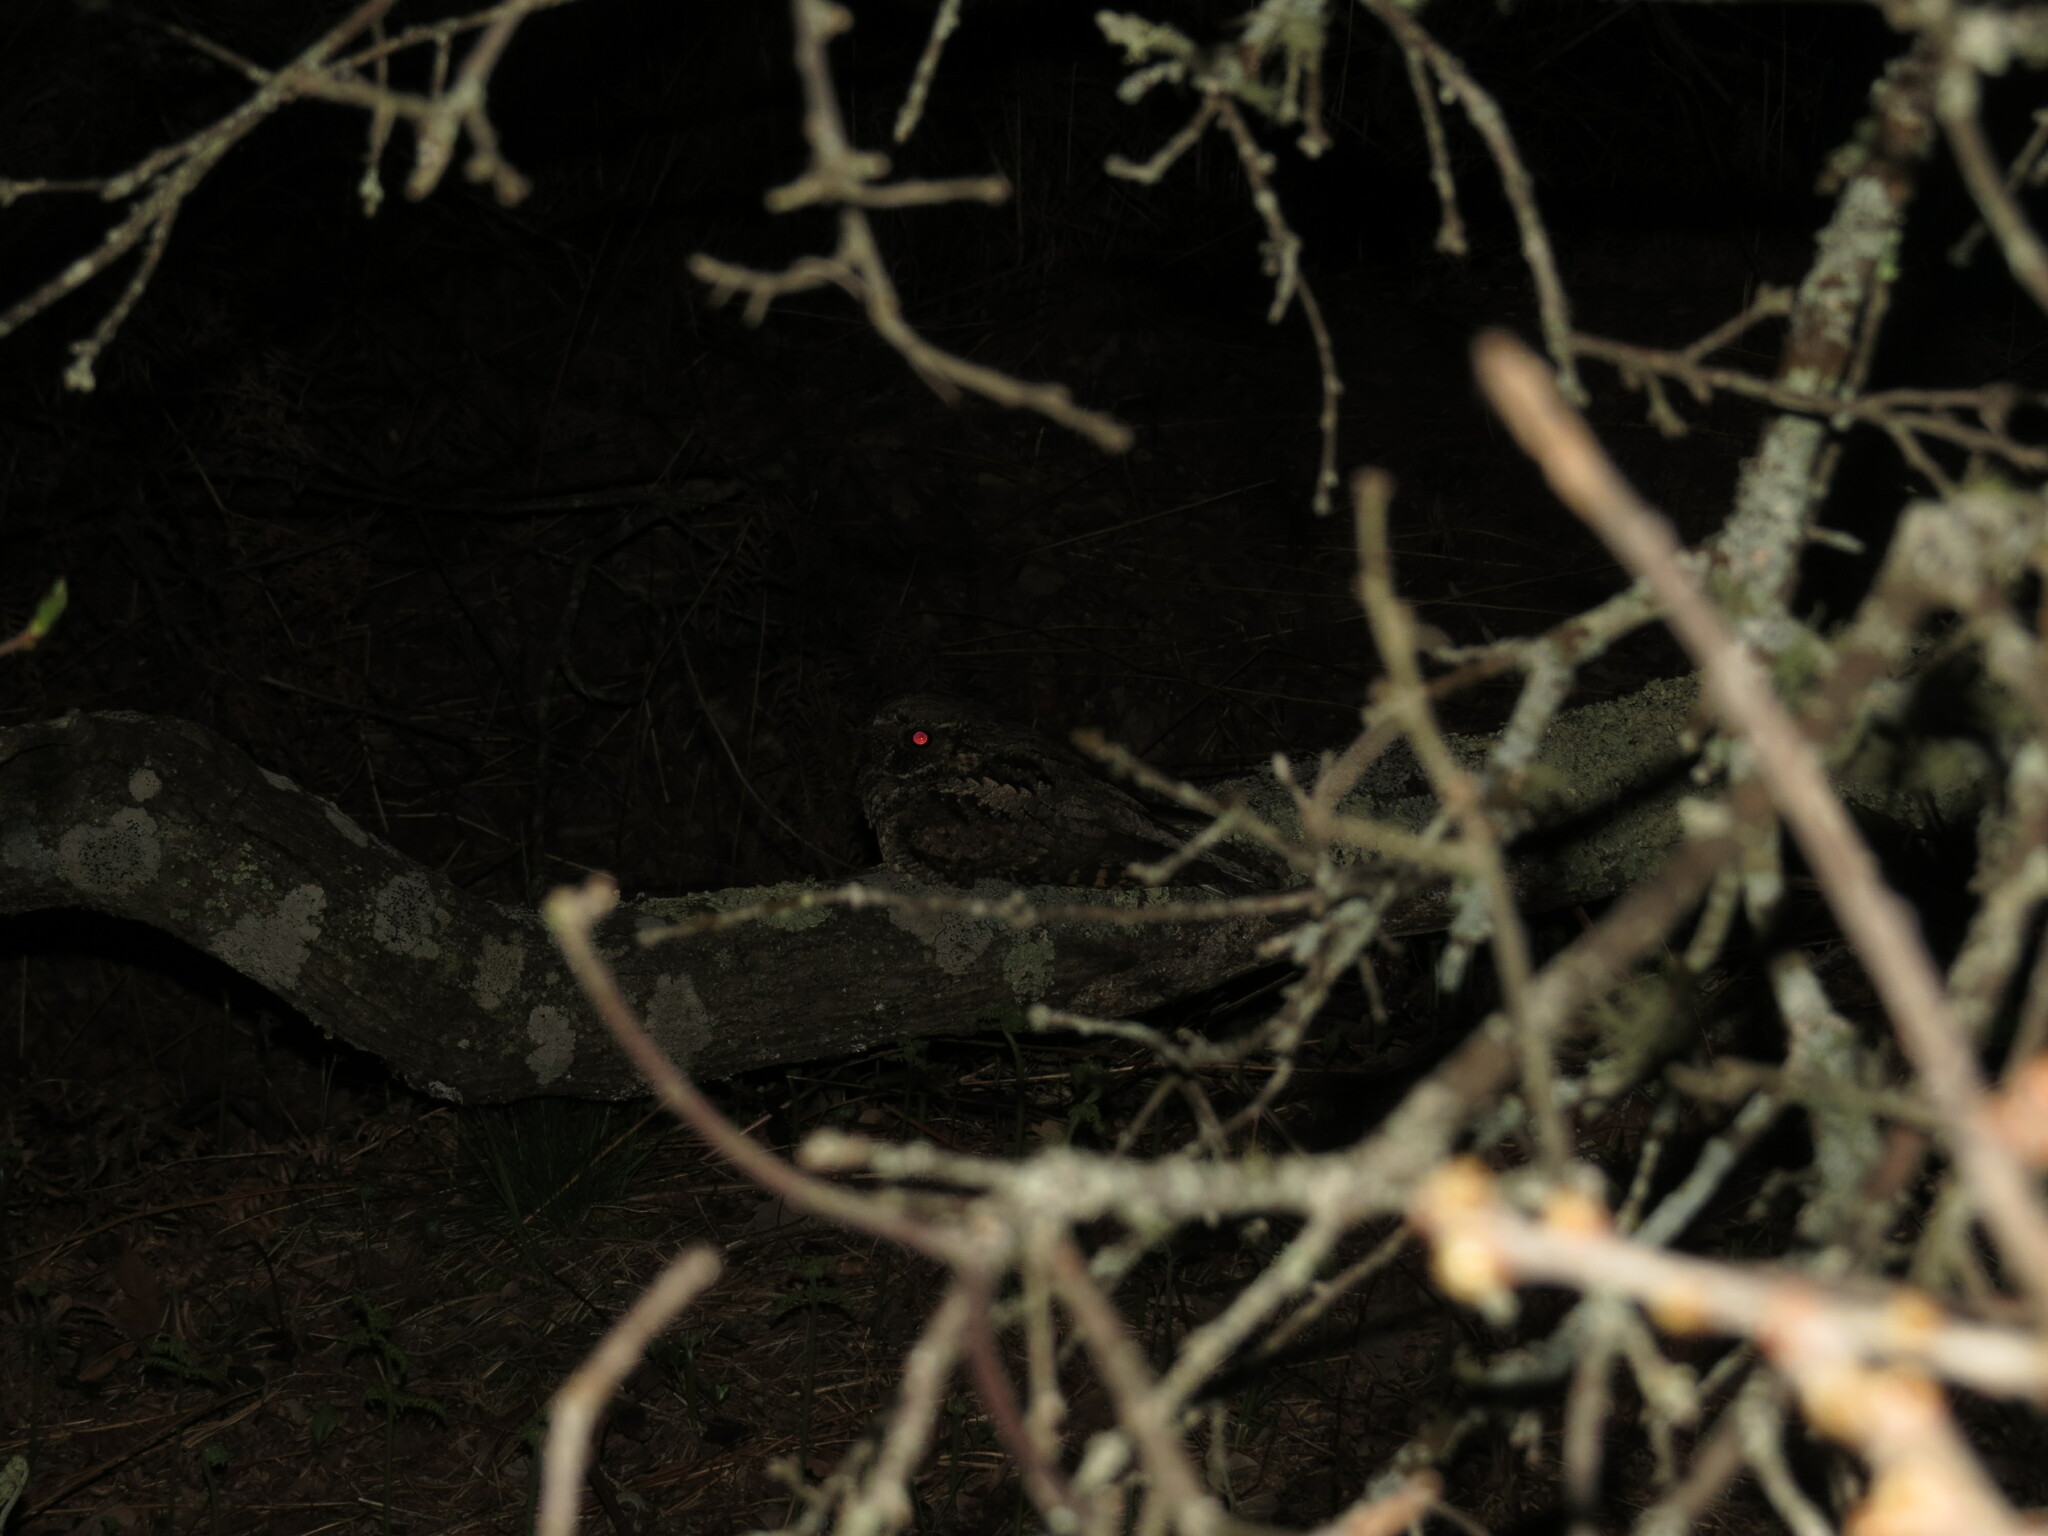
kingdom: Animalia
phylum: Chordata
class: Aves
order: Caprimulgiformes
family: Caprimulgidae
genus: Antrostomus
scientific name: Antrostomus vociferus
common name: Eastern whip-poor-will
